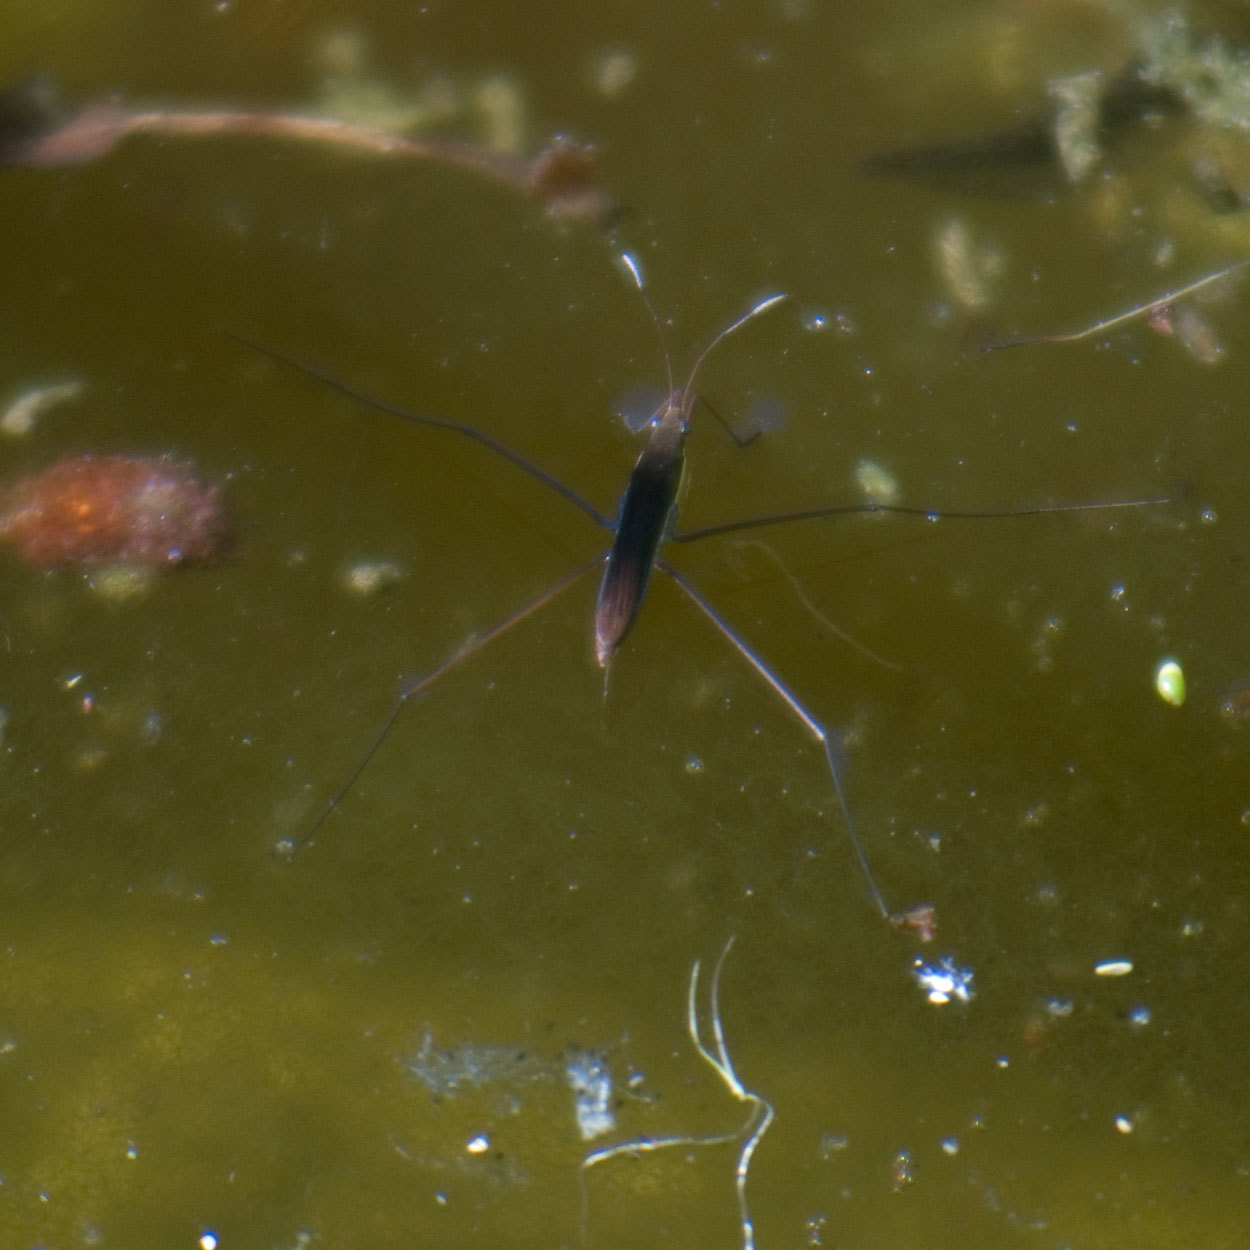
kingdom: Animalia
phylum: Arthropoda
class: Insecta
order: Hemiptera
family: Gerridae
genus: Limnoporus
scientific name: Limnoporus dissortis
